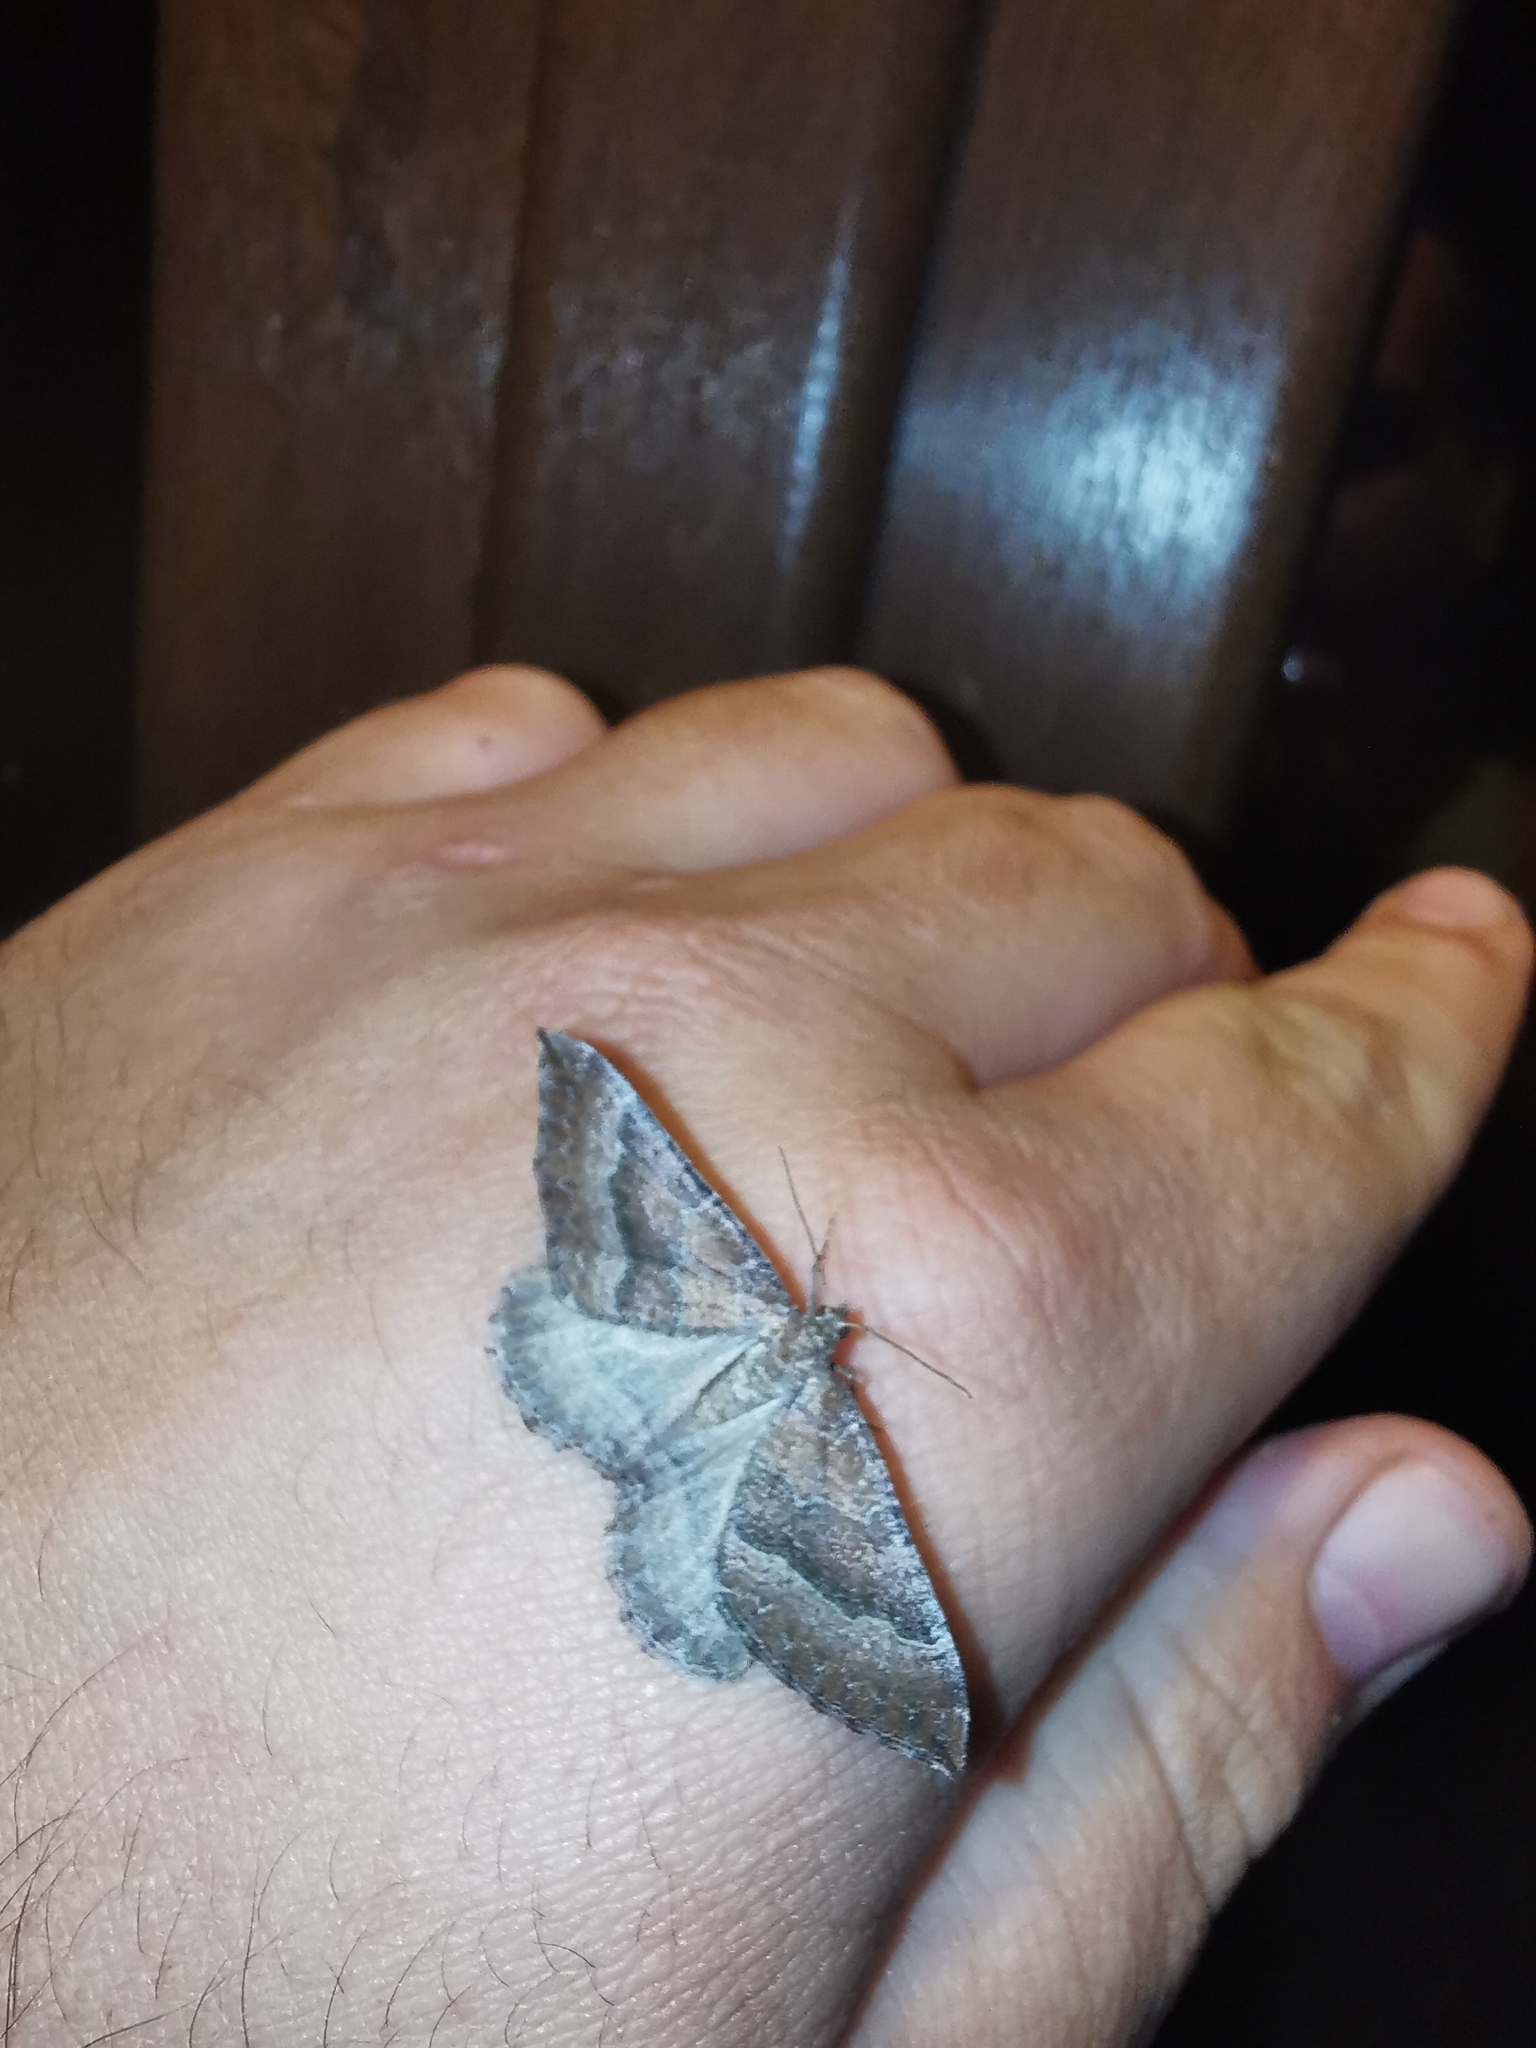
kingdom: Animalia
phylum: Arthropoda
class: Insecta
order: Lepidoptera
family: Geometridae
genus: Larentia
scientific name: Larentia clavaria
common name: Mallow
